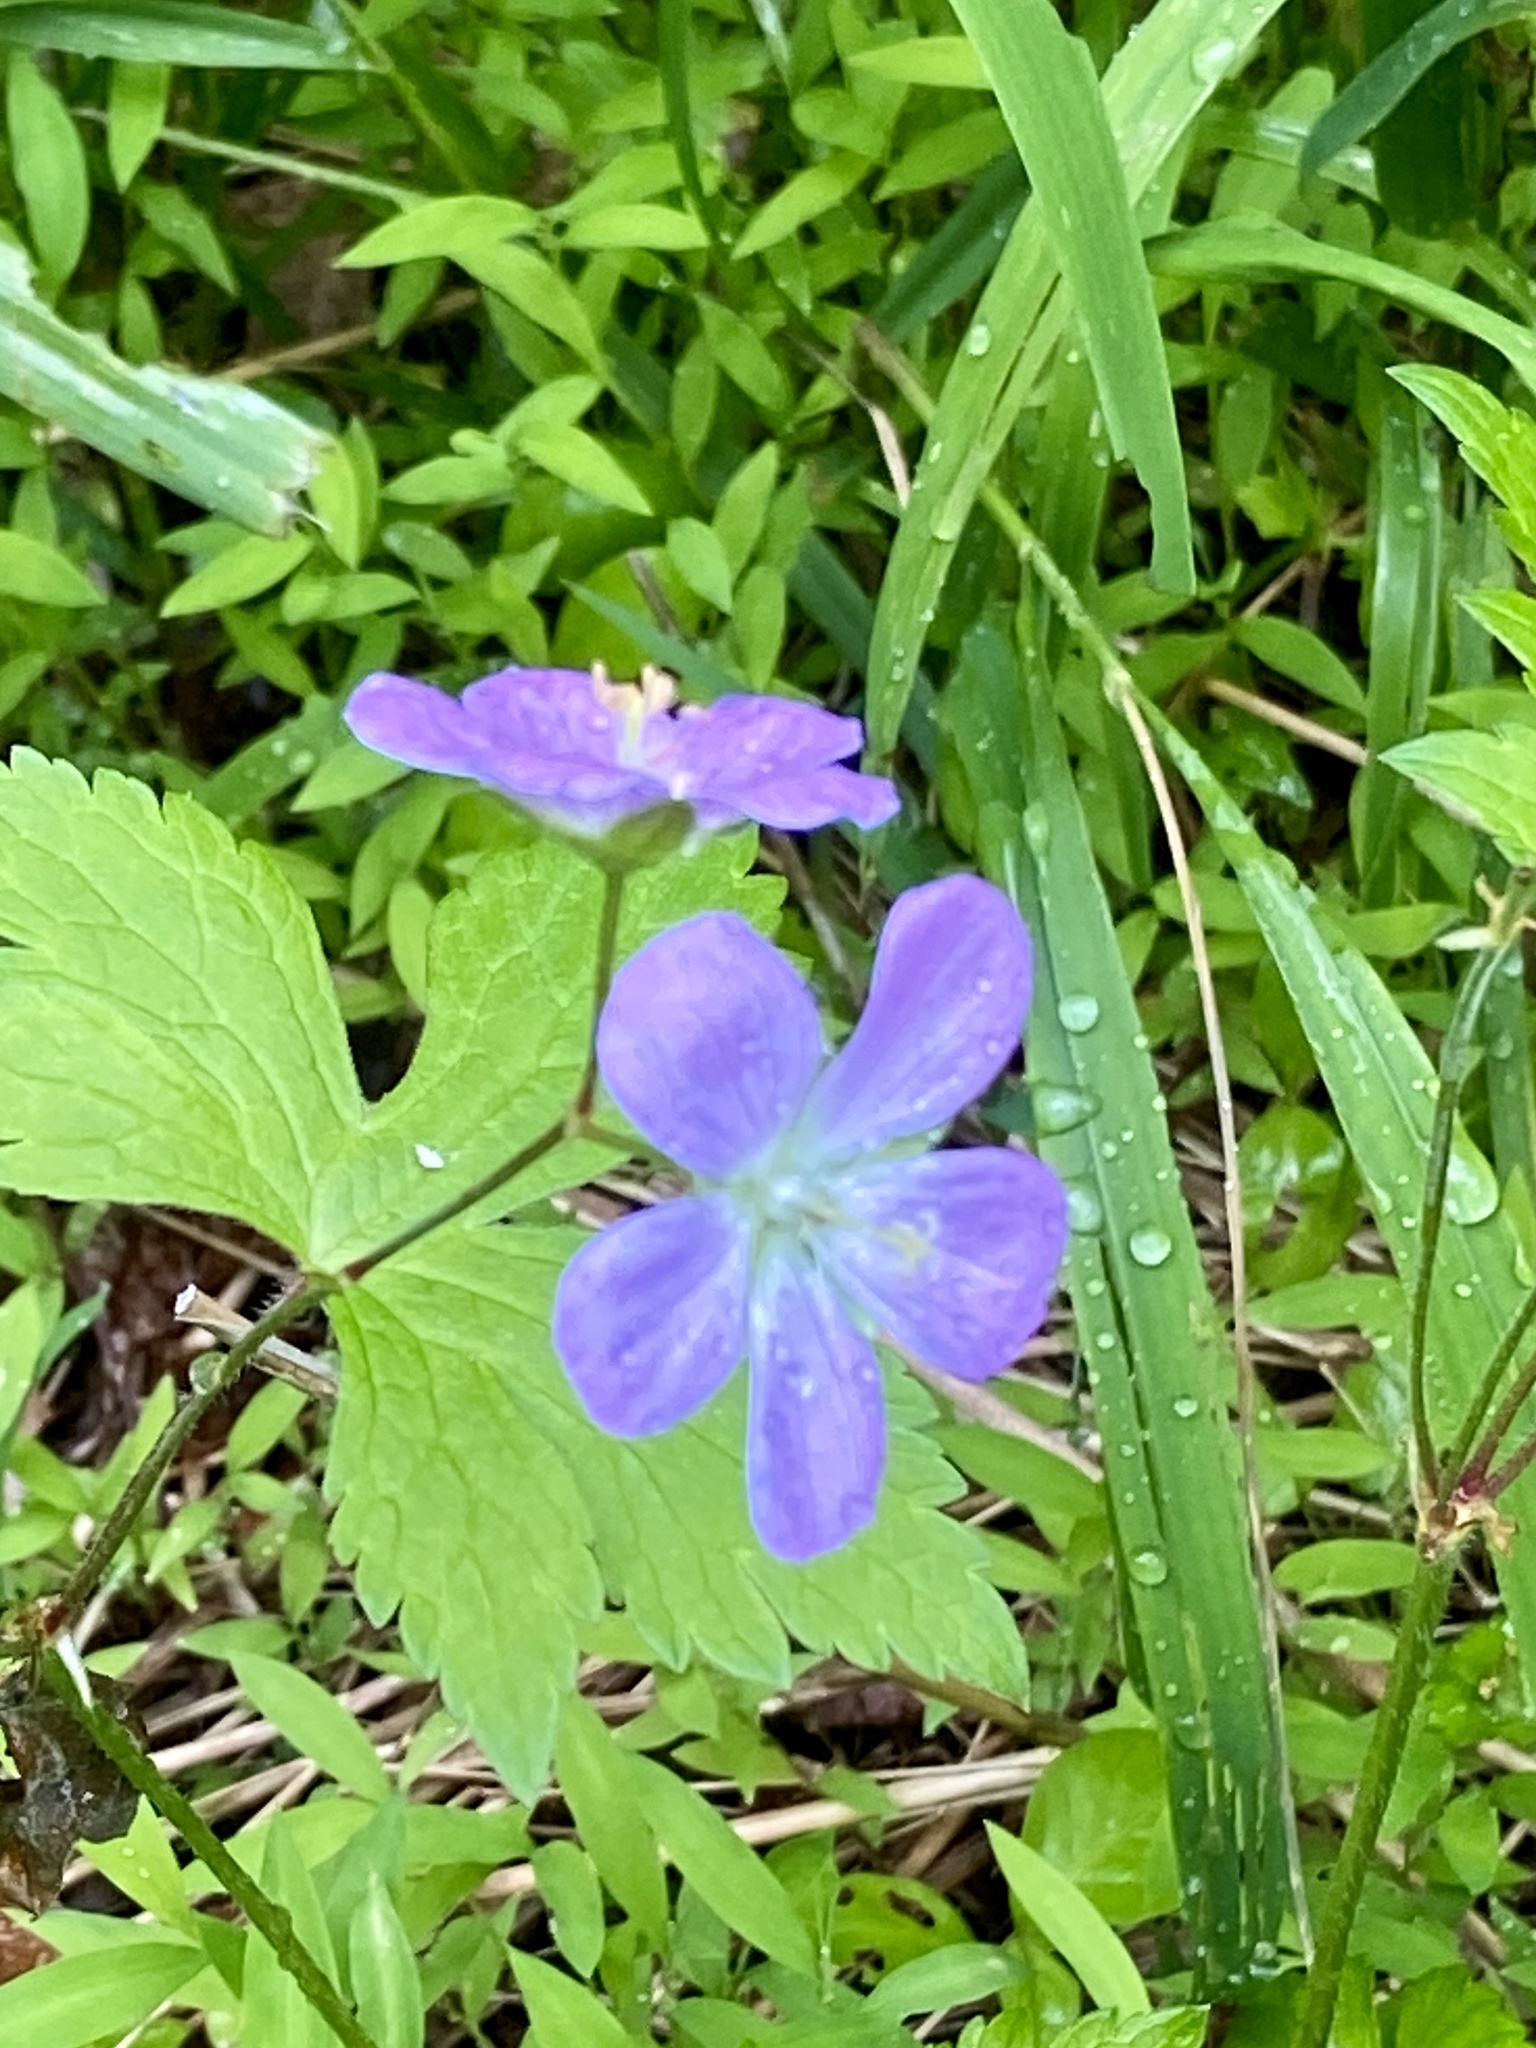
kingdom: Plantae
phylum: Tracheophyta
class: Magnoliopsida
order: Geraniales
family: Geraniaceae
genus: Geranium
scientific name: Geranium maculatum
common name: Spotted geranium
